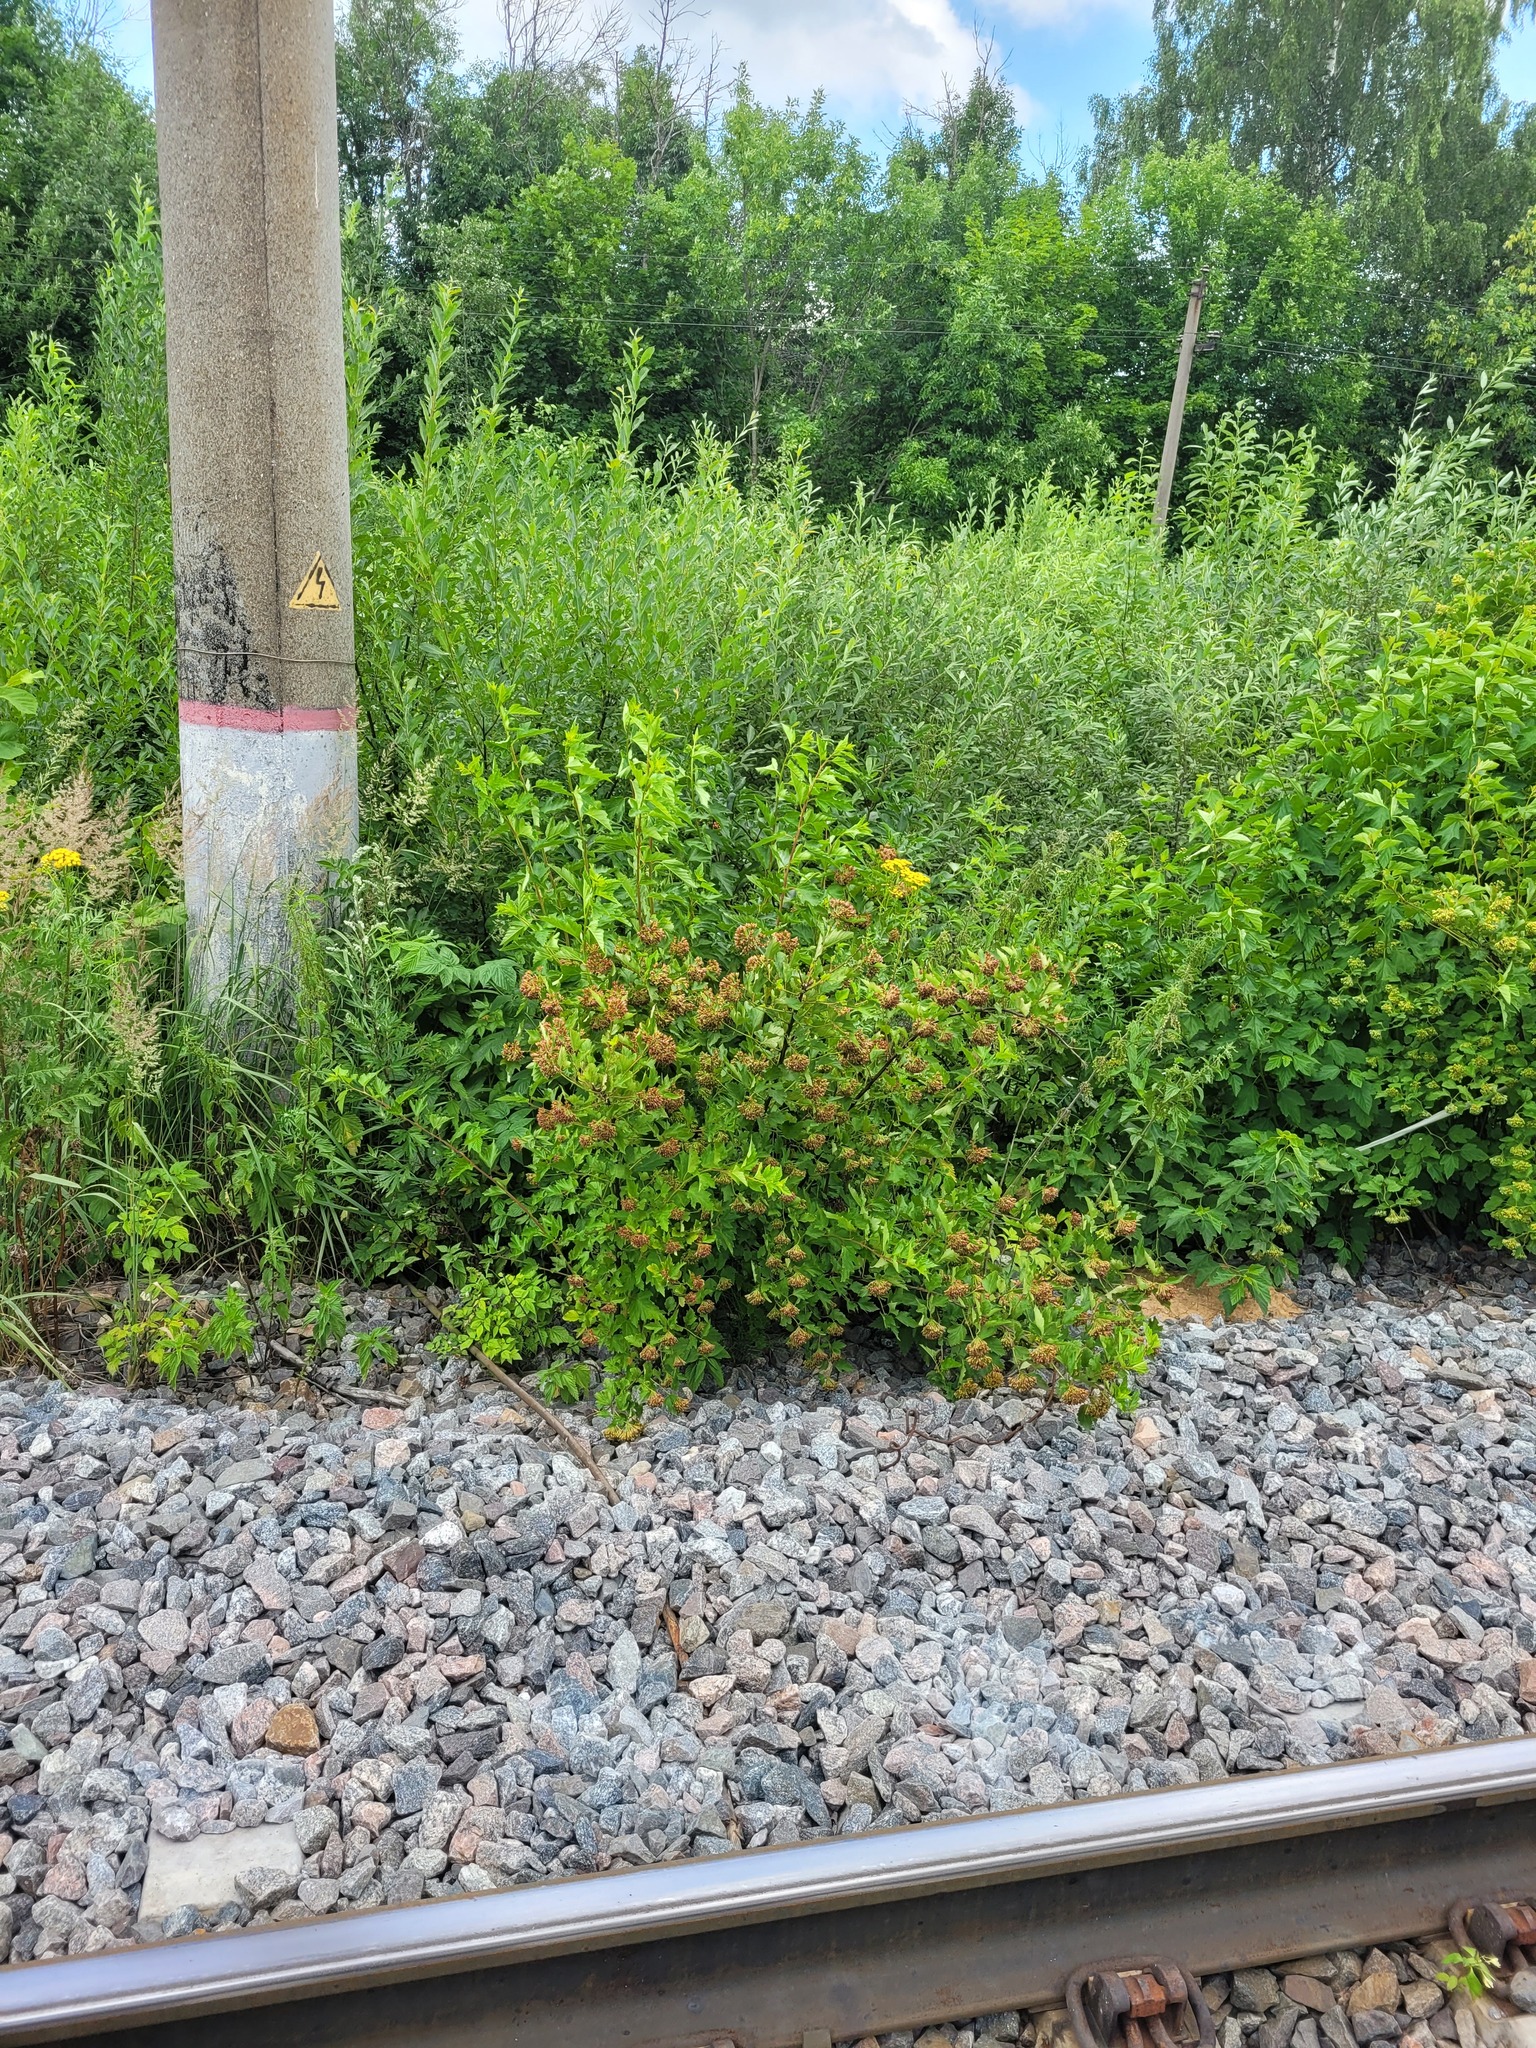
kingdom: Plantae
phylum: Tracheophyta
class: Magnoliopsida
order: Rosales
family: Rosaceae
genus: Physocarpus
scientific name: Physocarpus opulifolius
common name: Ninebark
